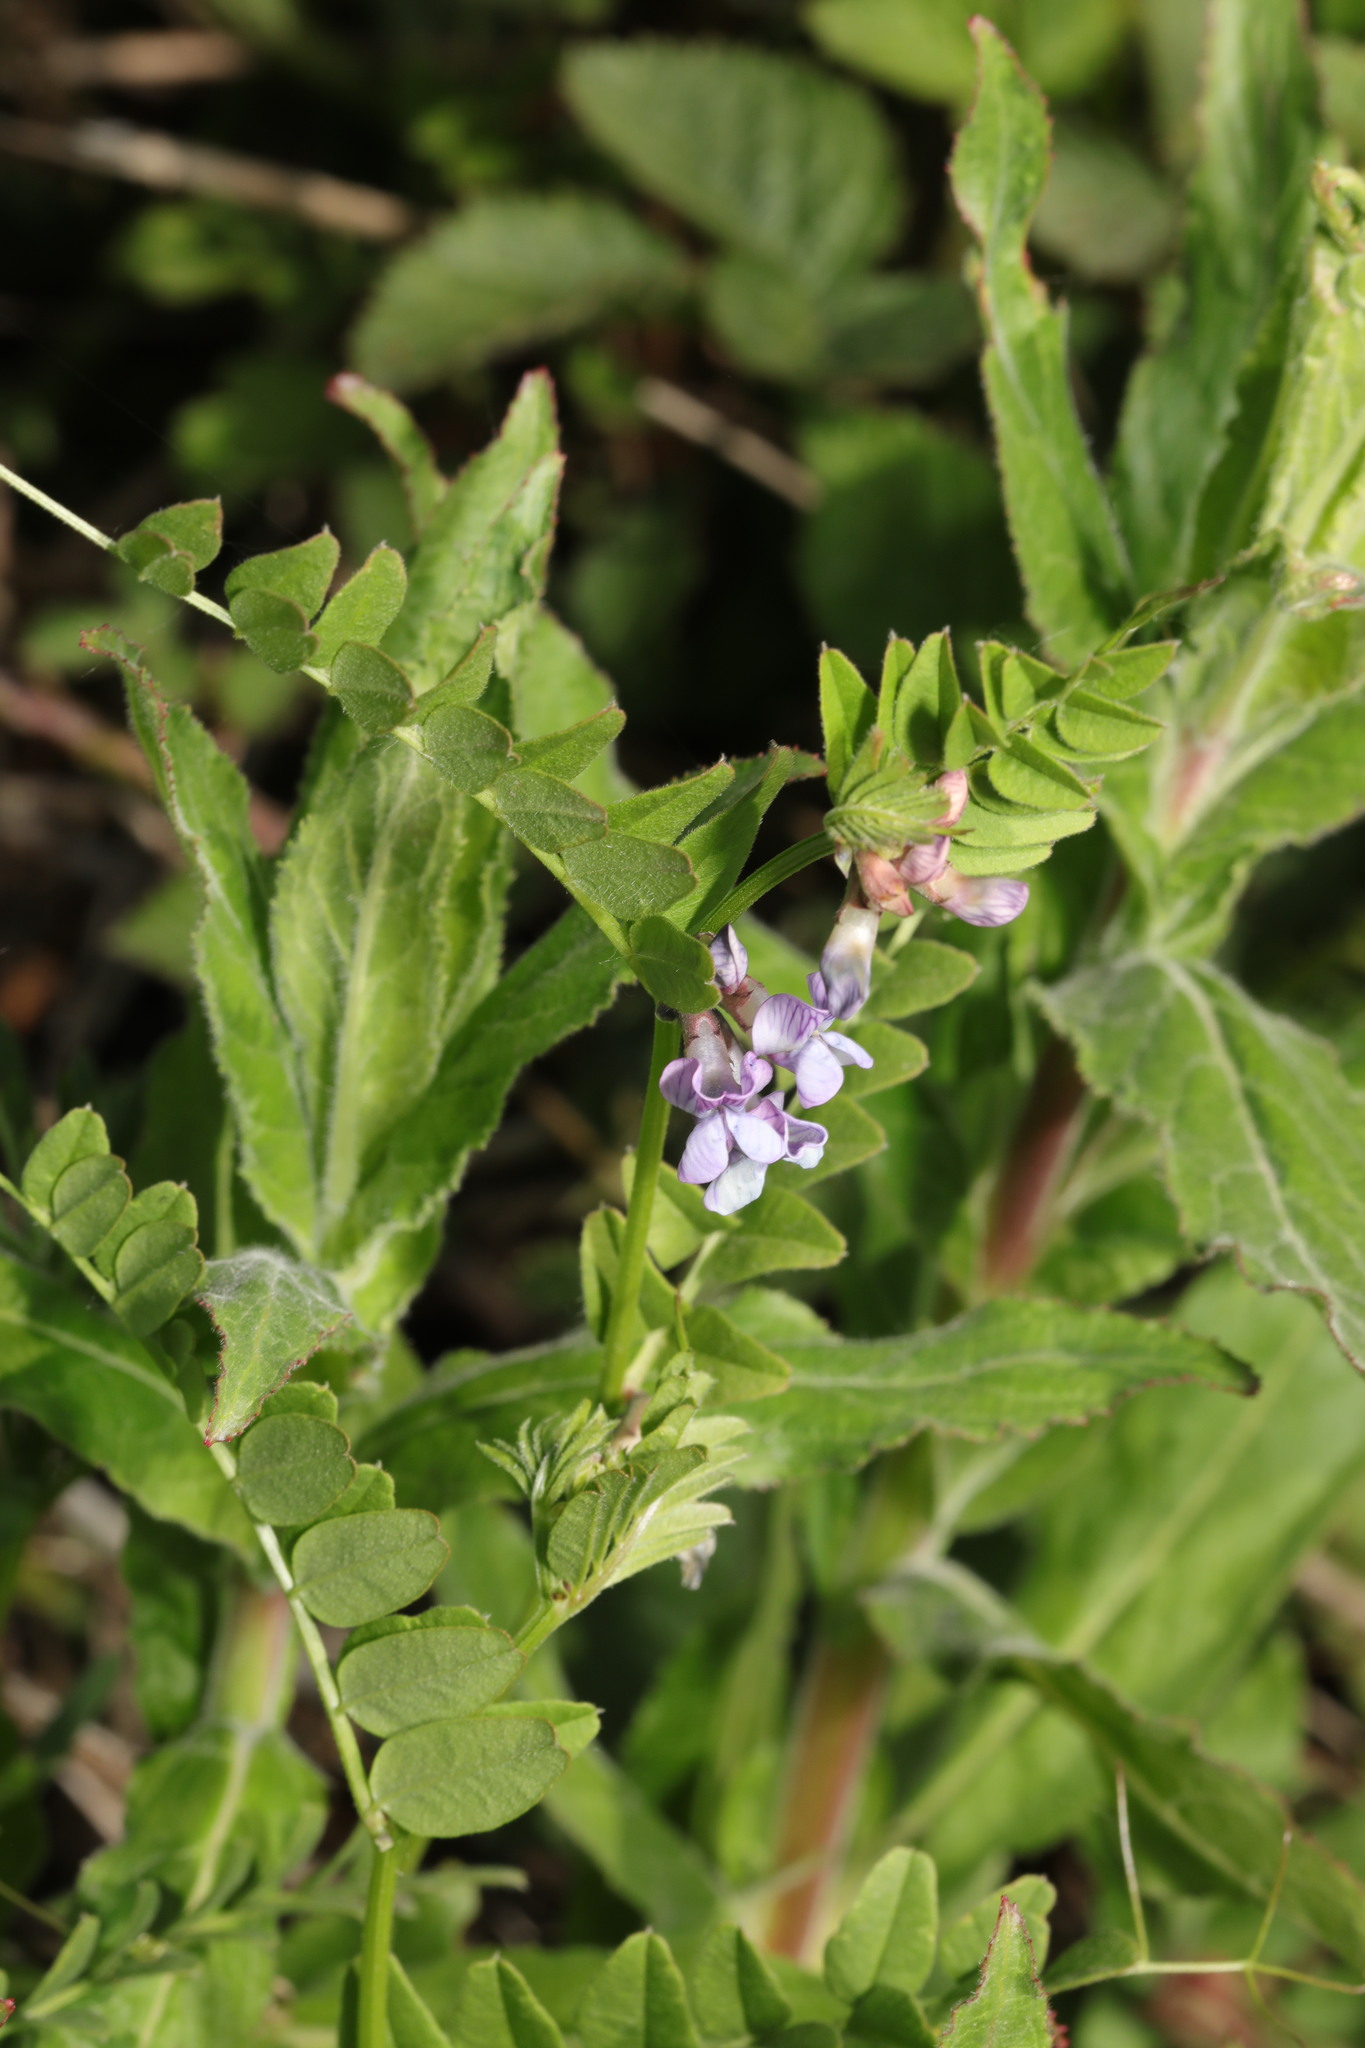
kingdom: Plantae
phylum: Tracheophyta
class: Magnoliopsida
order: Fabales
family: Fabaceae
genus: Vicia
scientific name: Vicia sepium
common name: Bush vetch
